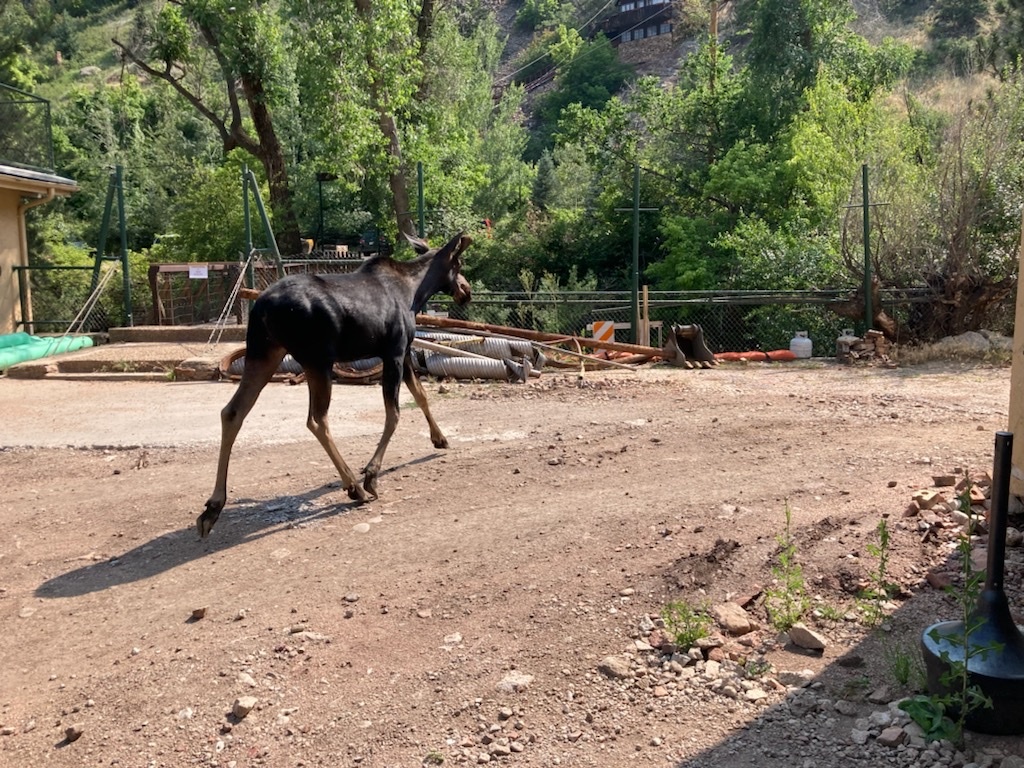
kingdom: Animalia
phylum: Chordata
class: Mammalia
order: Artiodactyla
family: Cervidae
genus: Alces
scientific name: Alces alces
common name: Moose
